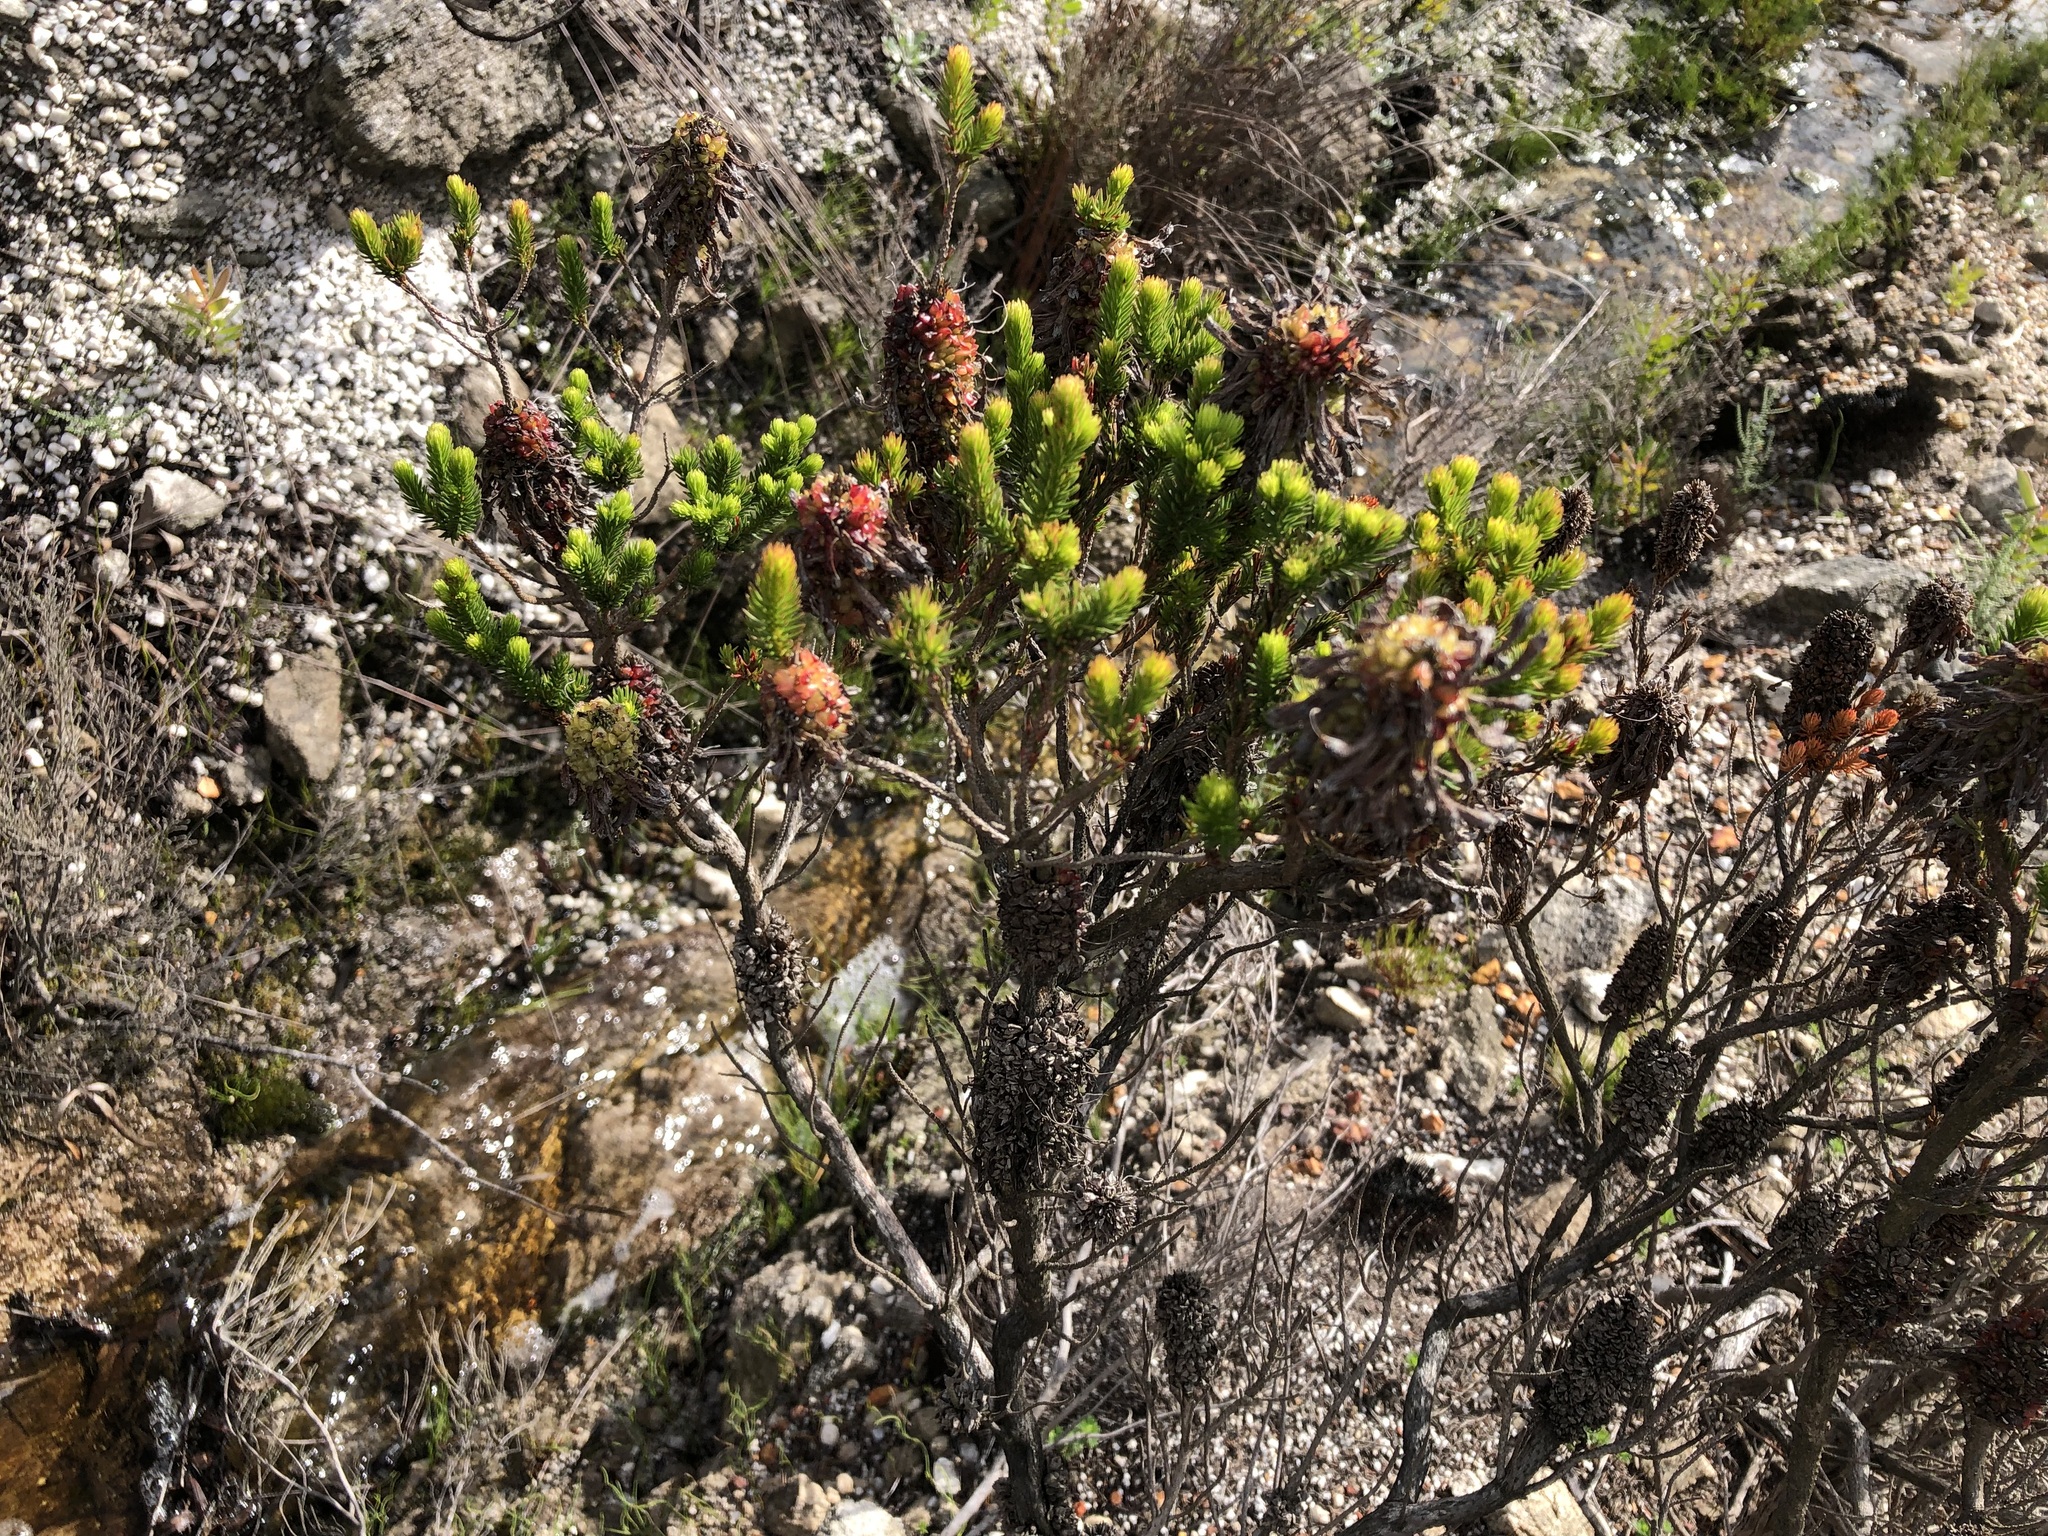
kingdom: Plantae
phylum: Tracheophyta
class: Magnoliopsida
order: Ericales
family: Ericaceae
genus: Erica
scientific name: Erica sessiliflora
